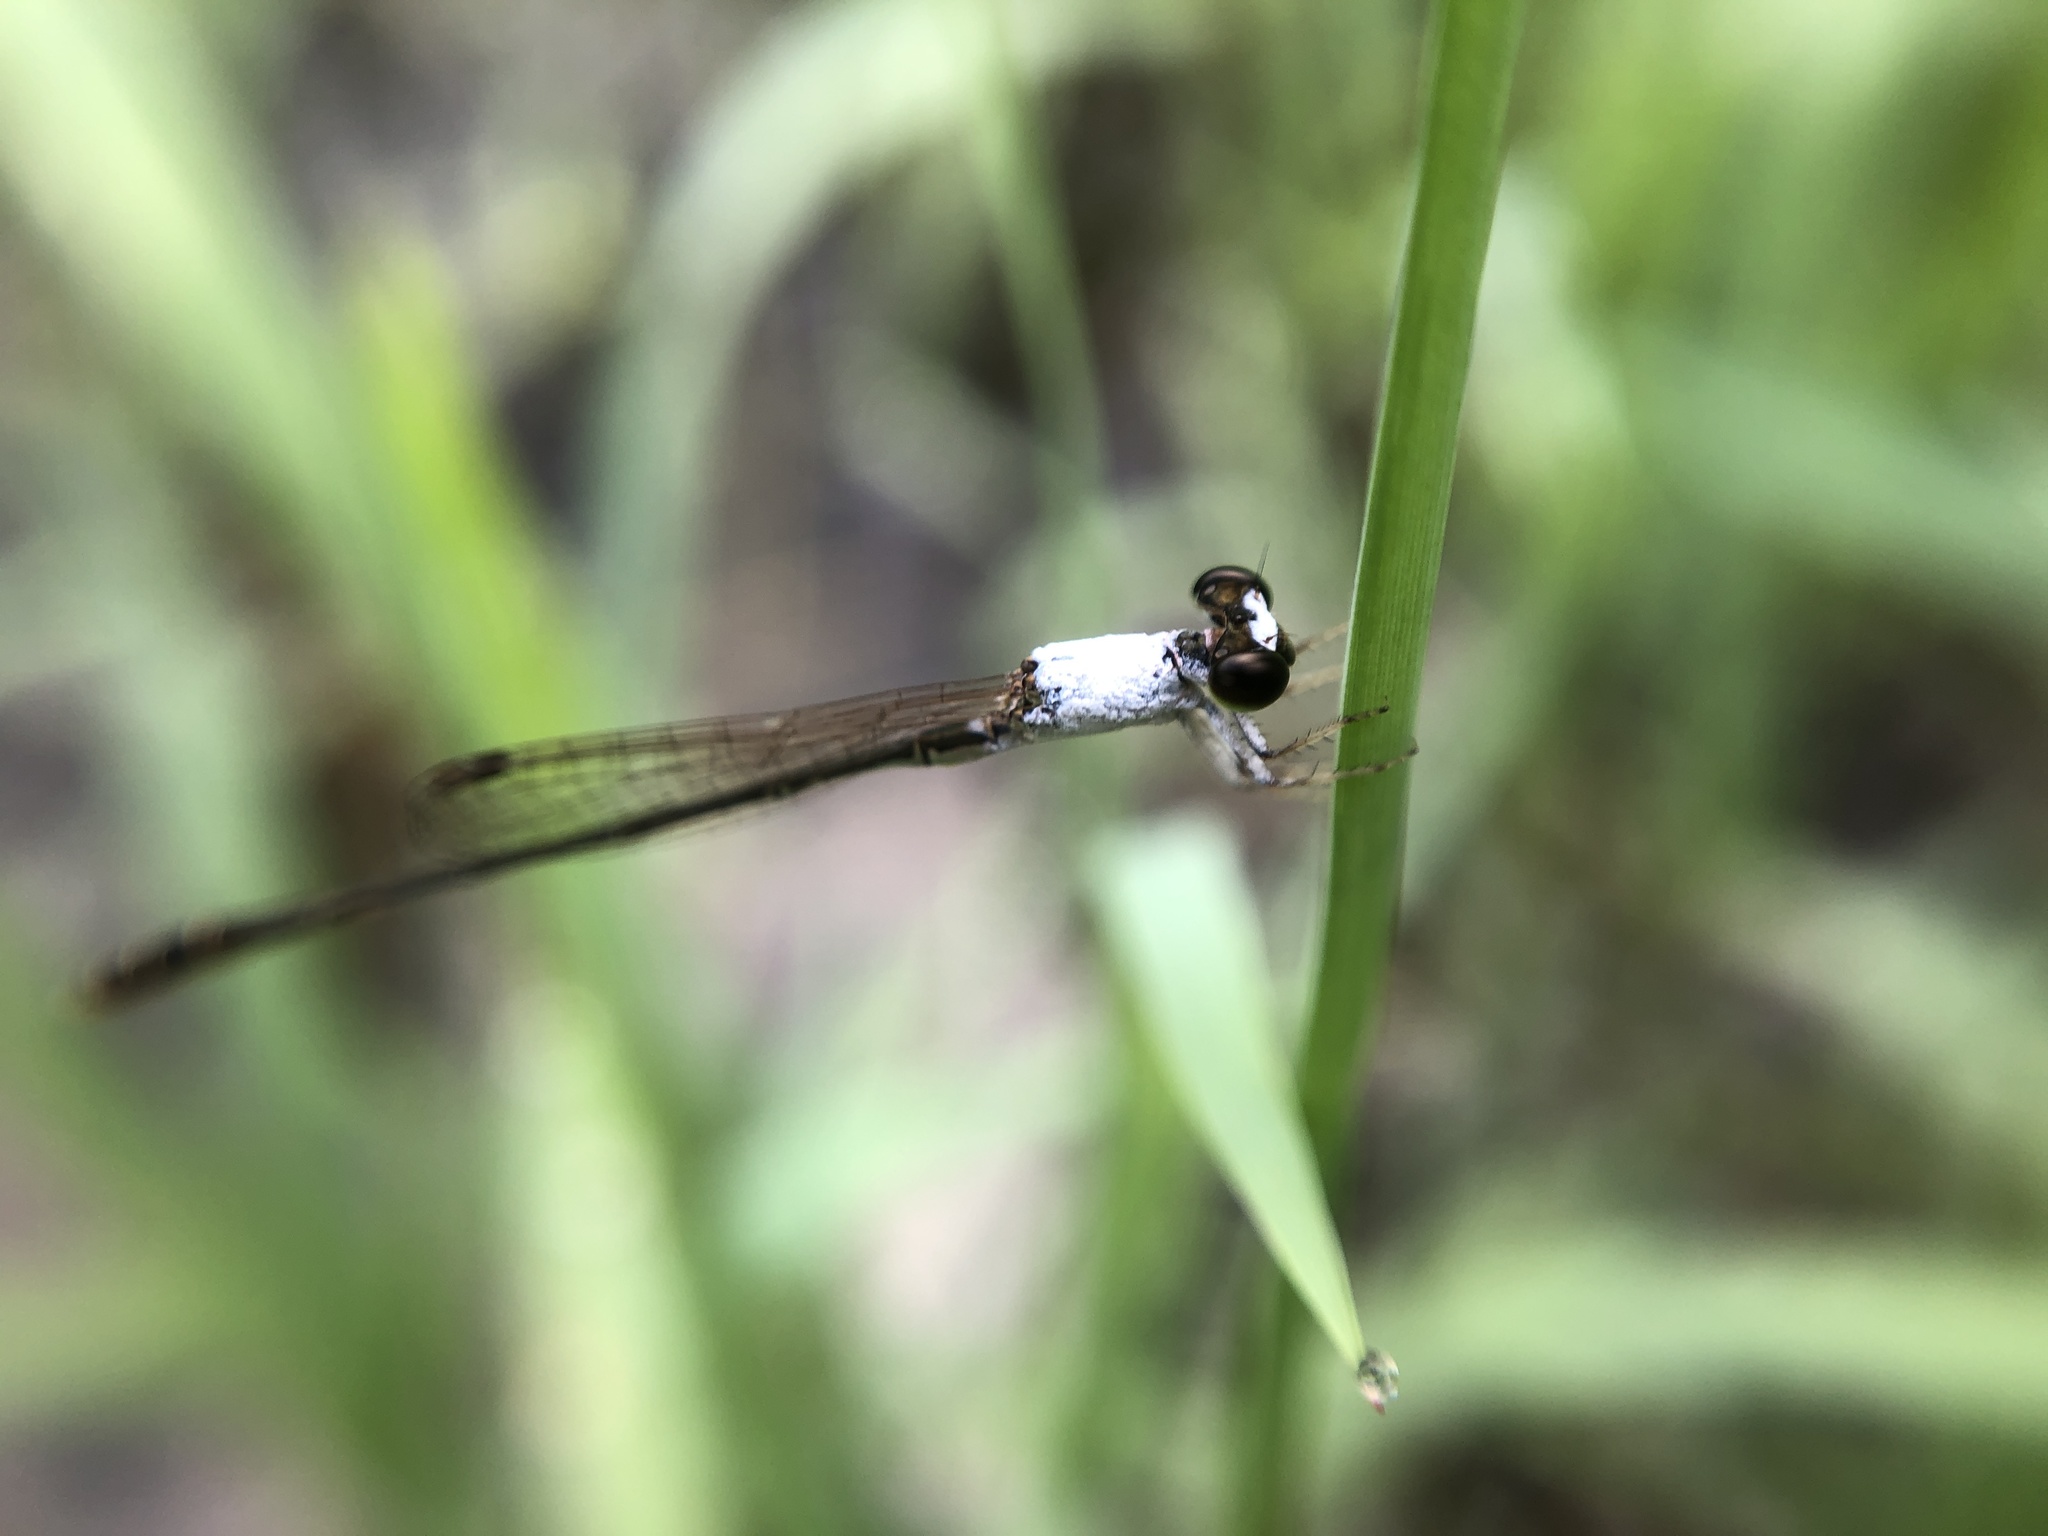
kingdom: Animalia
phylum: Arthropoda
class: Insecta
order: Odonata
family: Coenagrionidae
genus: Agriocnemis
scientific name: Agriocnemis femina
